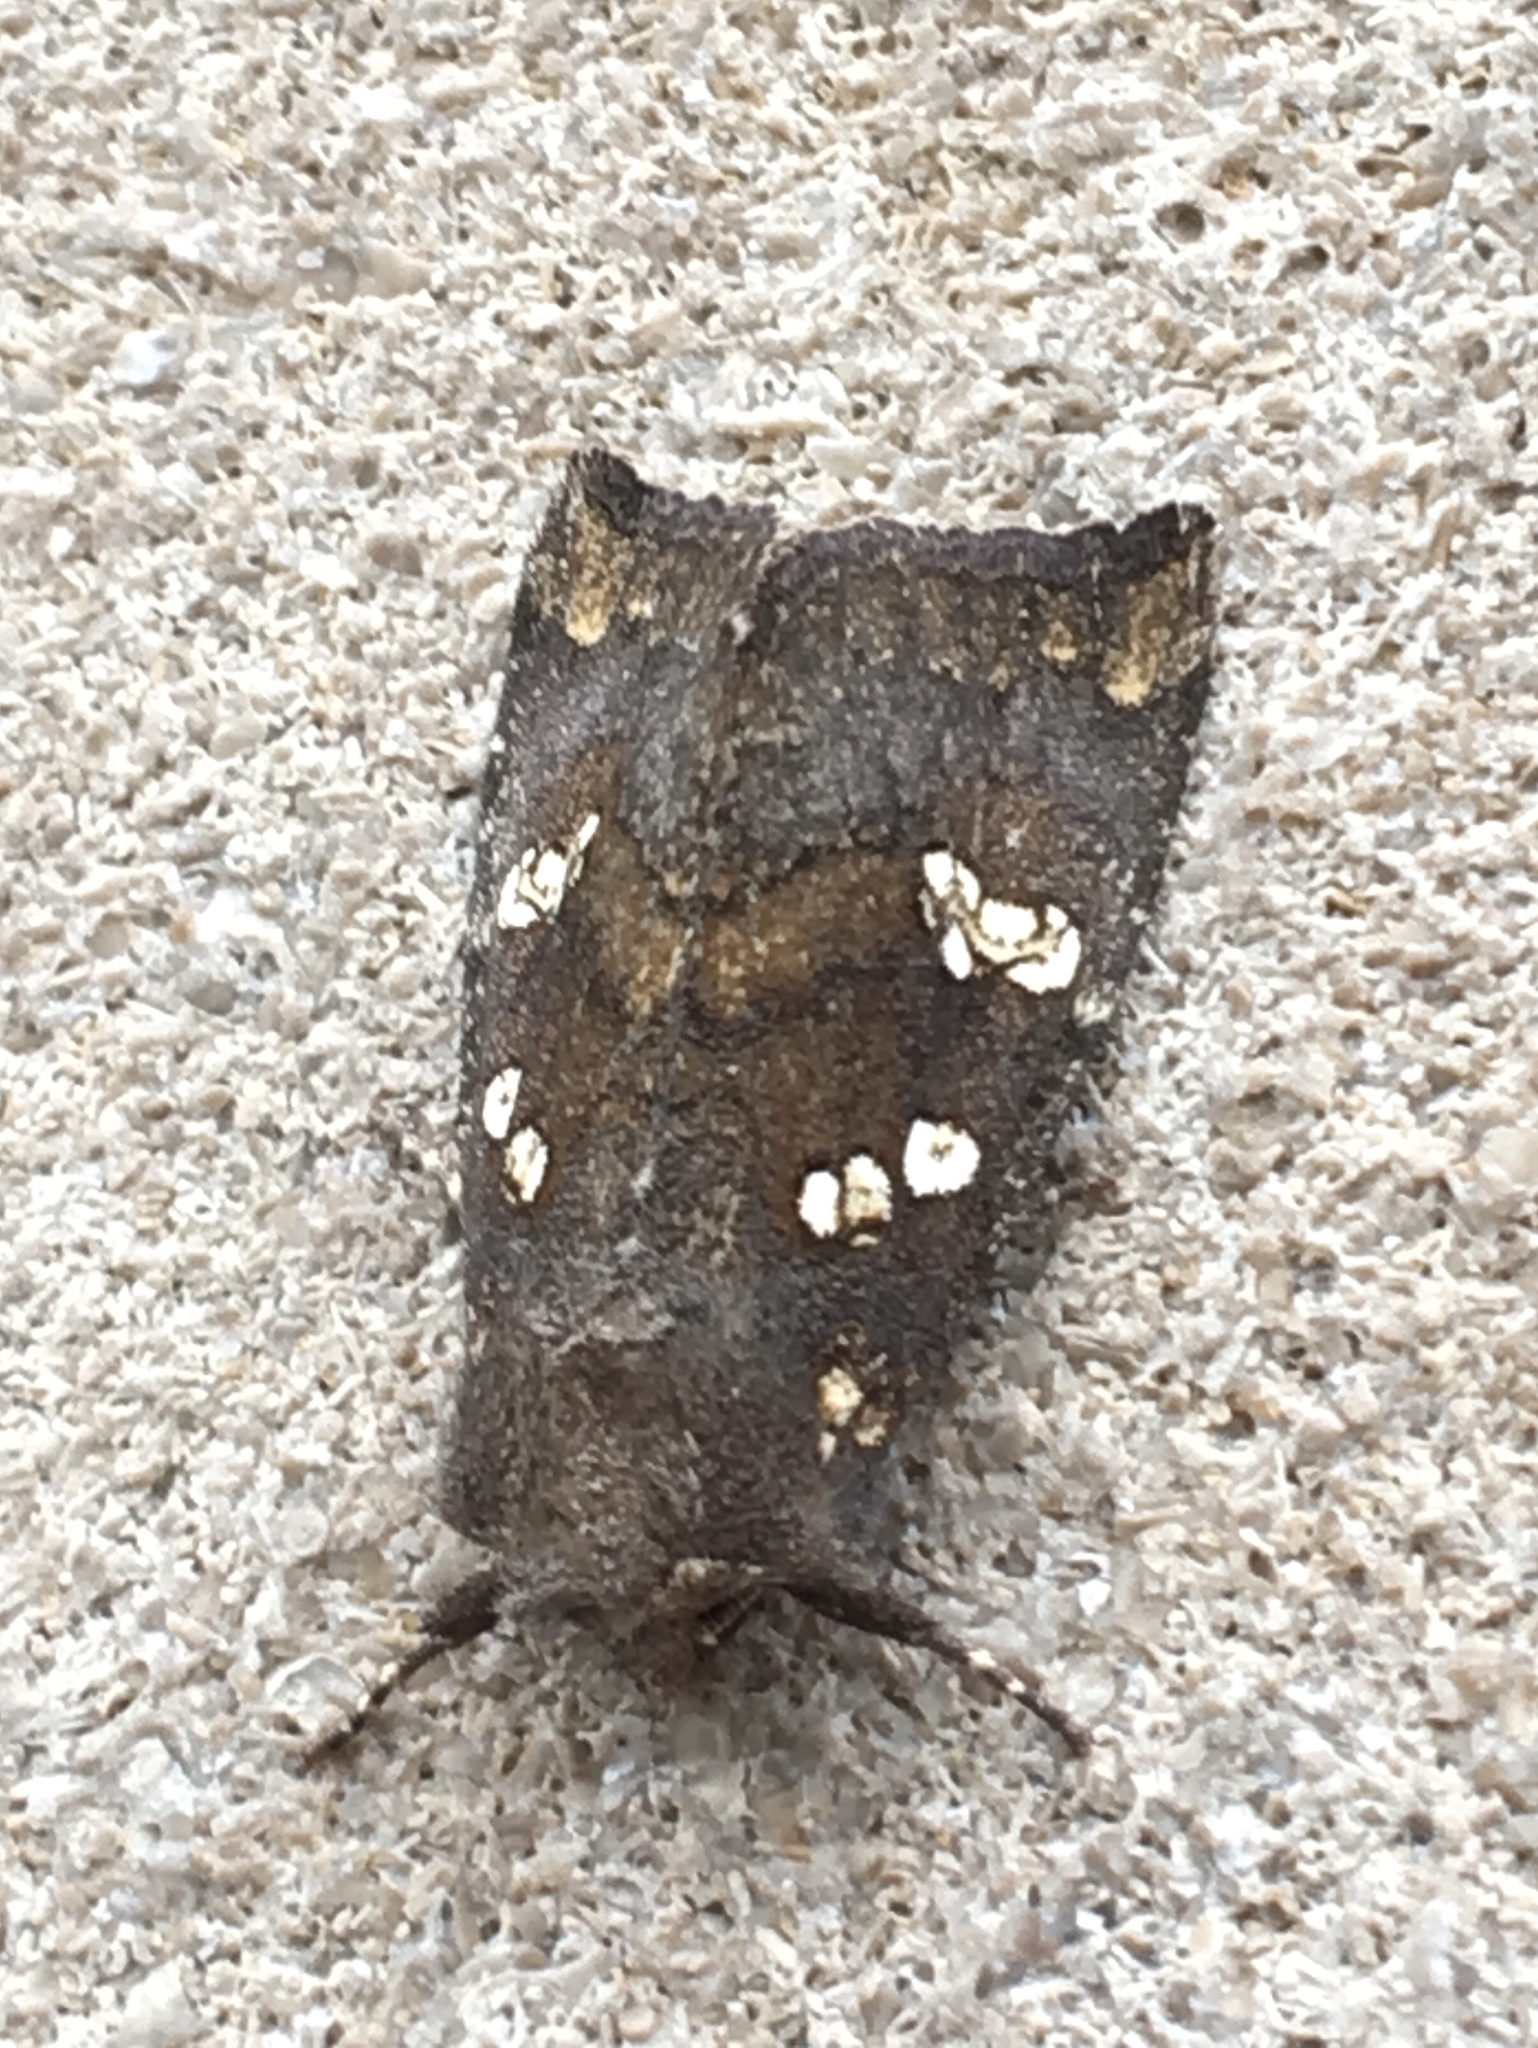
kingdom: Animalia
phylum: Arthropoda
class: Insecta
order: Lepidoptera
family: Noctuidae
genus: Papaipema
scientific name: Papaipema unimoda
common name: Meadow rue borer moth
